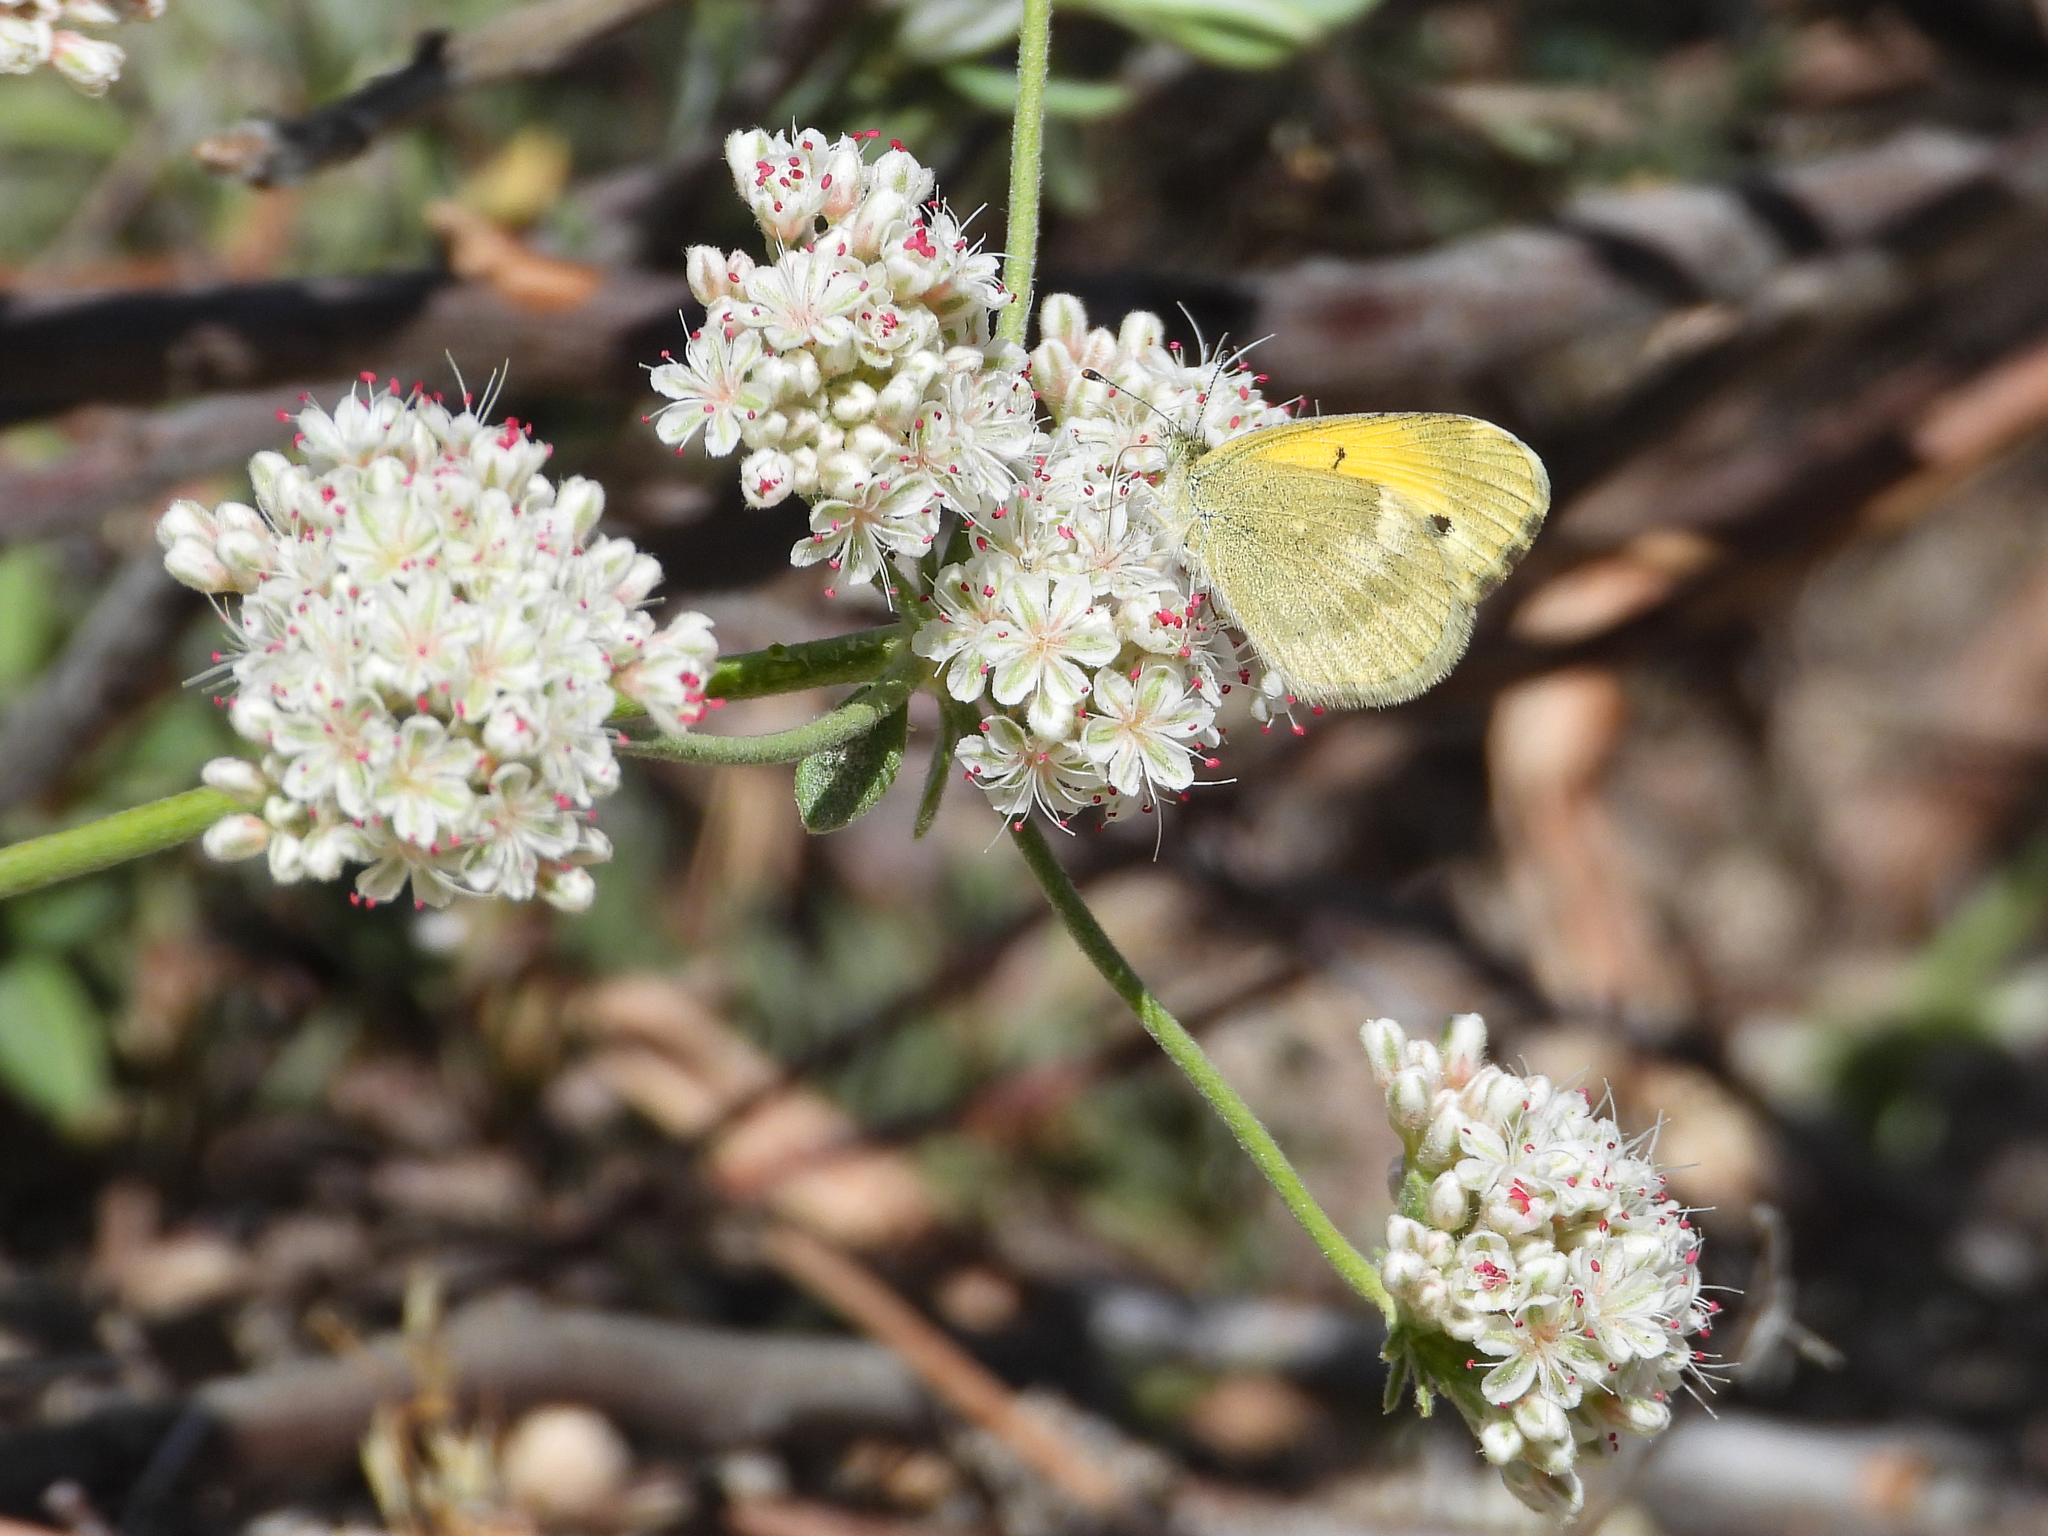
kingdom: Animalia
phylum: Arthropoda
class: Insecta
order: Lepidoptera
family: Pieridae
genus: Nathalis
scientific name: Nathalis iole
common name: Dainty sulphur
